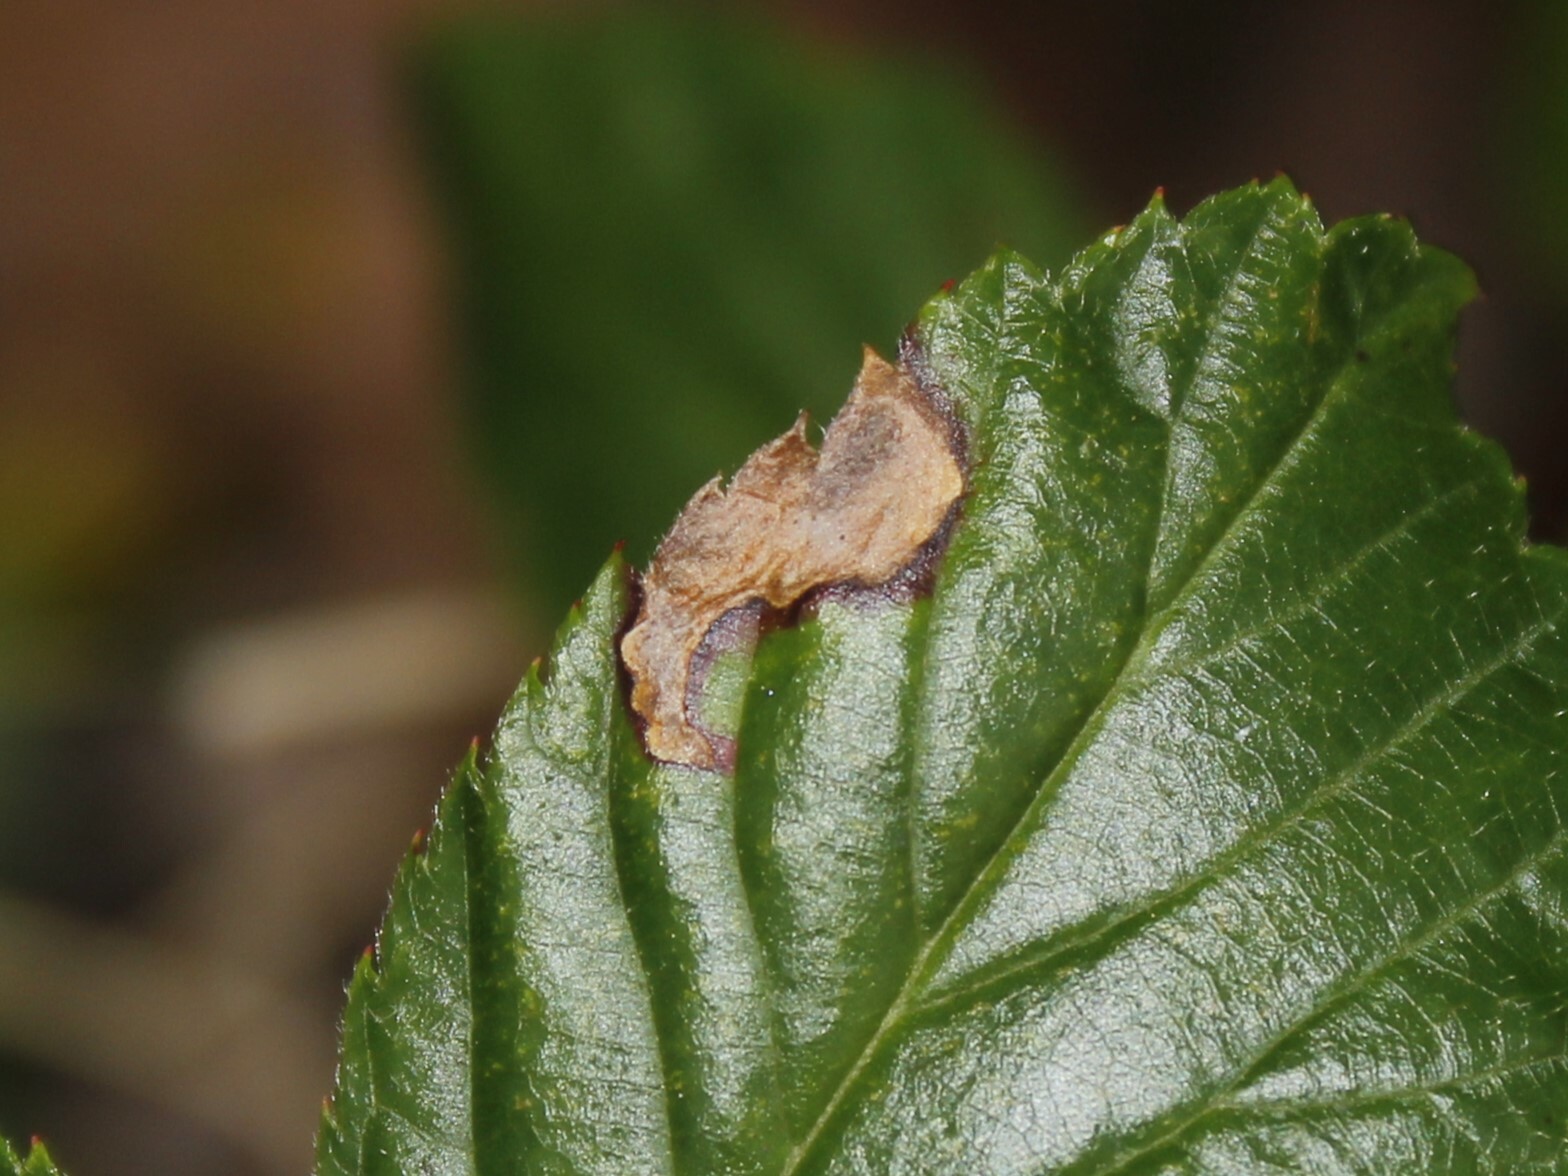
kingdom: Animalia
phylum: Arthropoda
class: Insecta
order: Hymenoptera
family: Tenthredinidae
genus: Metallus
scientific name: Metallus rohweri
